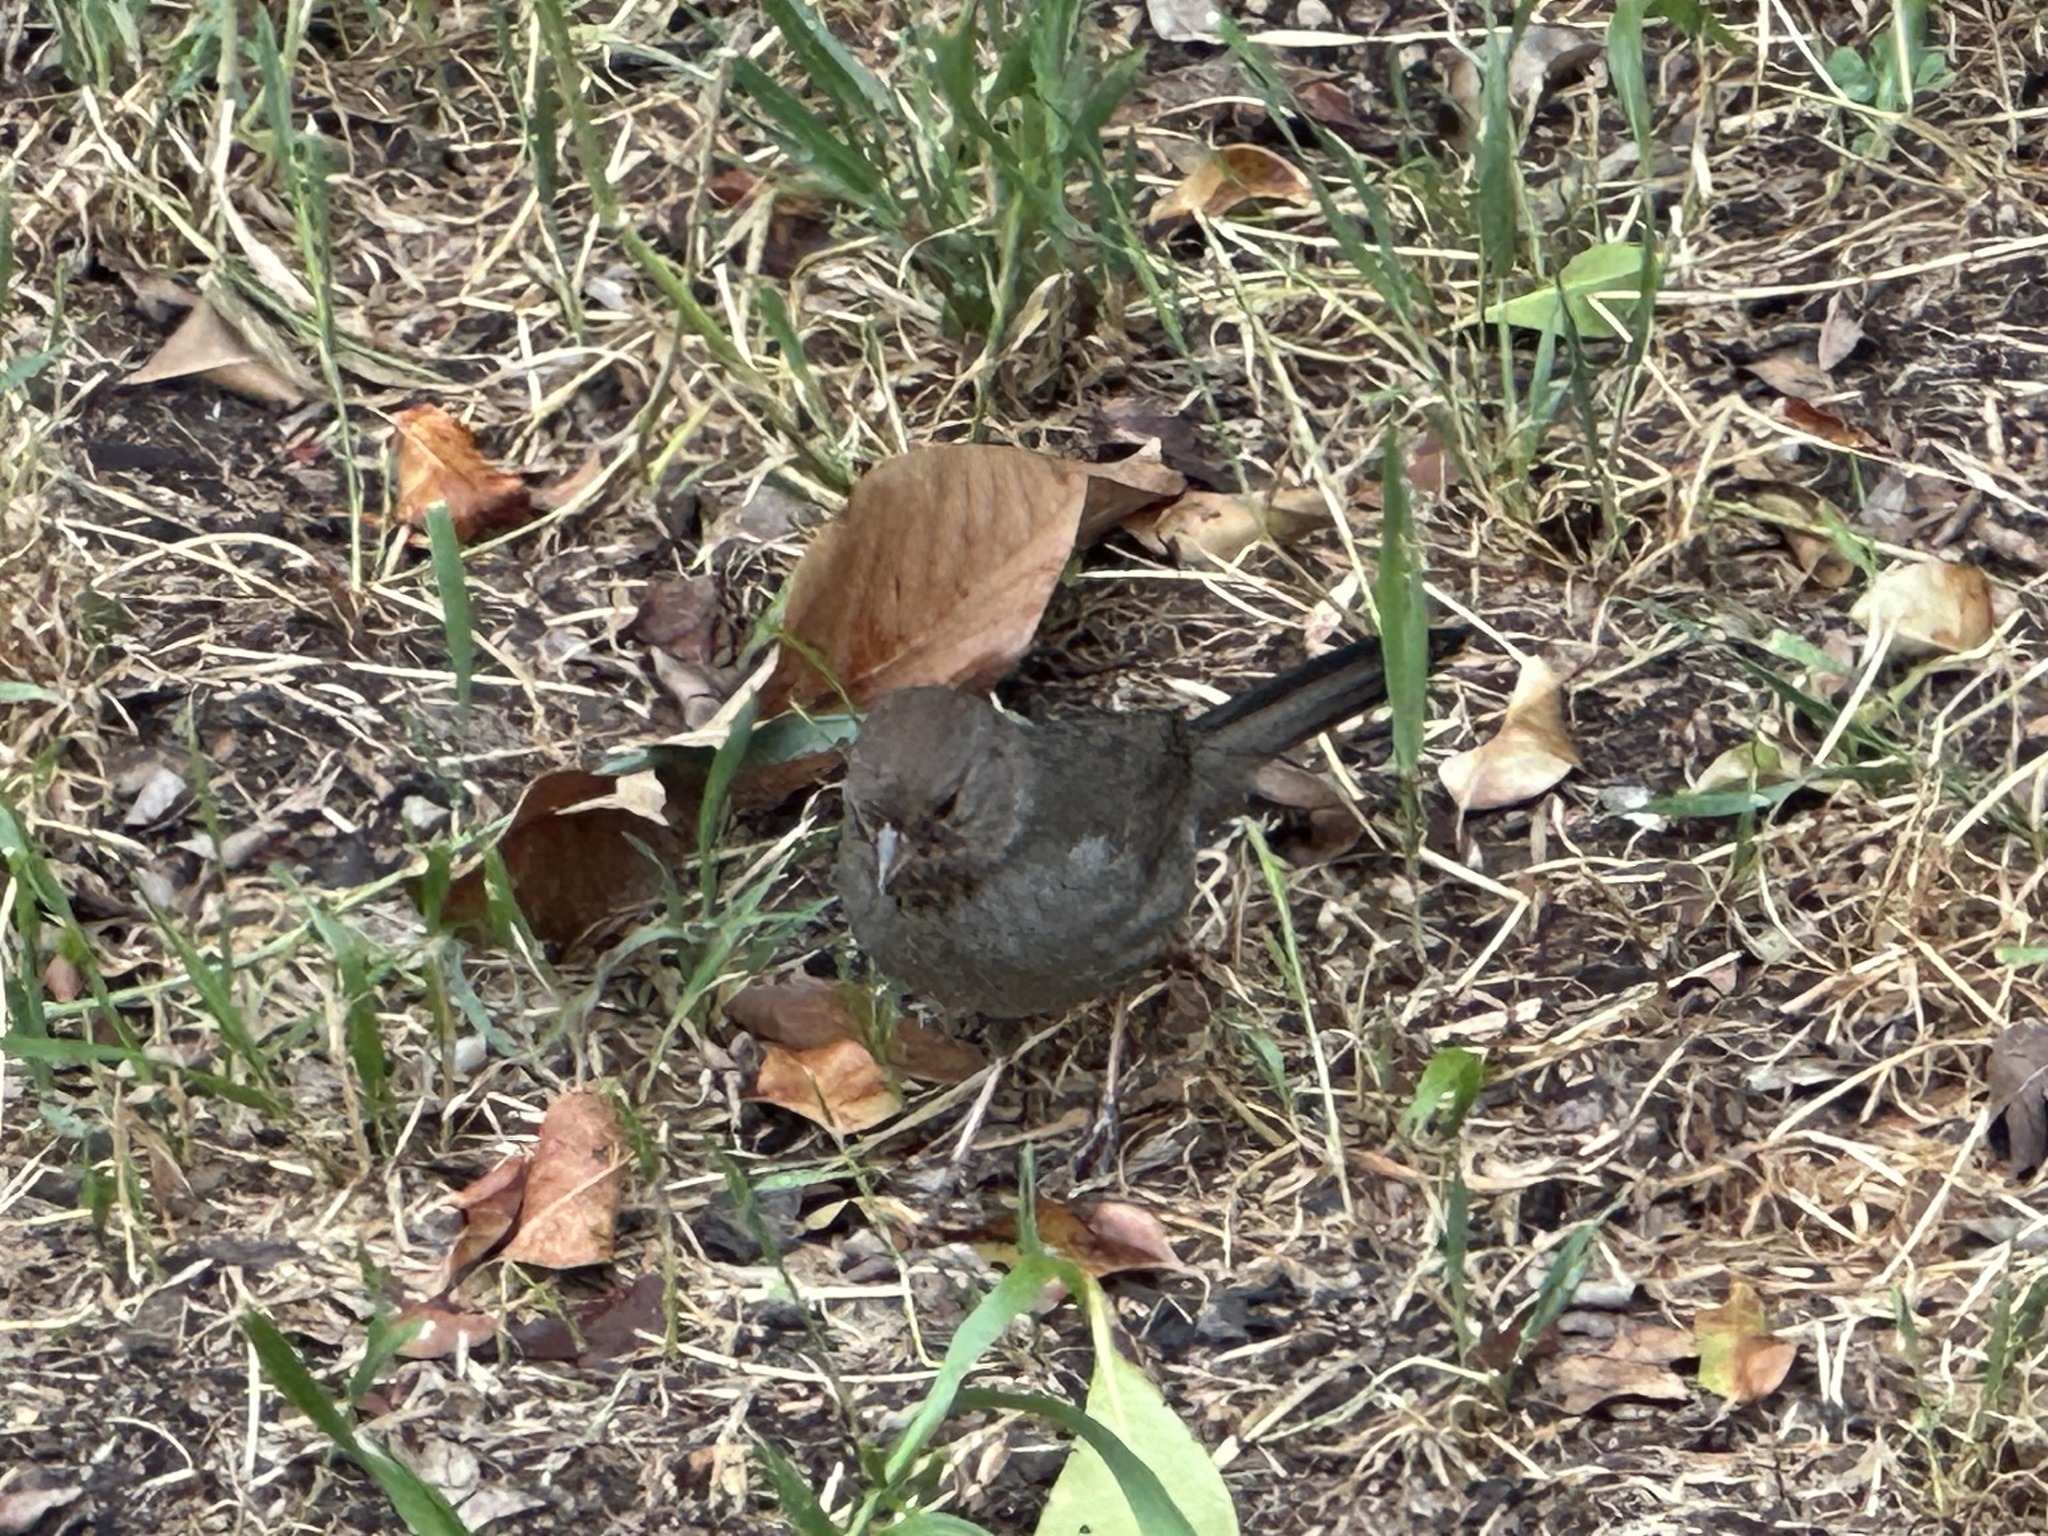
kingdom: Animalia
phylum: Chordata
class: Aves
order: Passeriformes
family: Passerellidae
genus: Melozone
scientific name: Melozone crissalis
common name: California towhee
